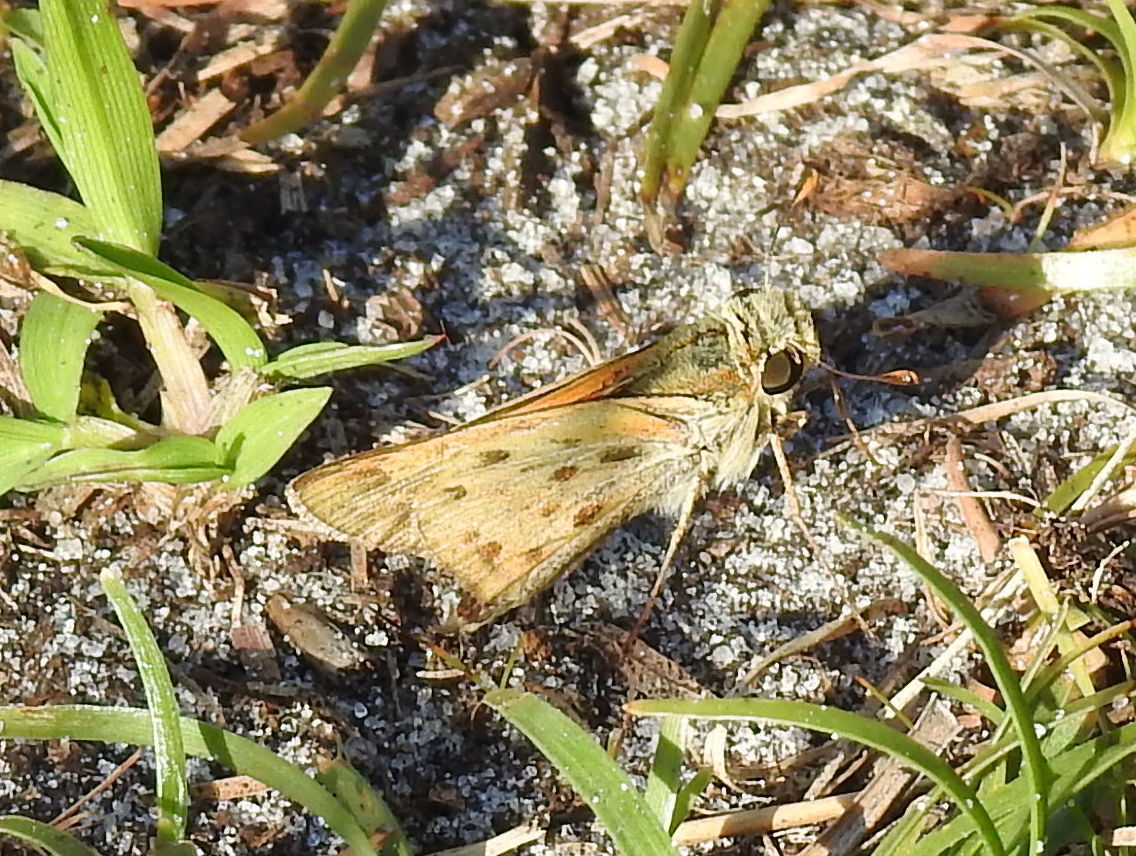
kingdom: Animalia
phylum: Arthropoda
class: Insecta
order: Lepidoptera
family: Hesperiidae
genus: Hylephila
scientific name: Hylephila phyleus
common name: Fiery skipper
